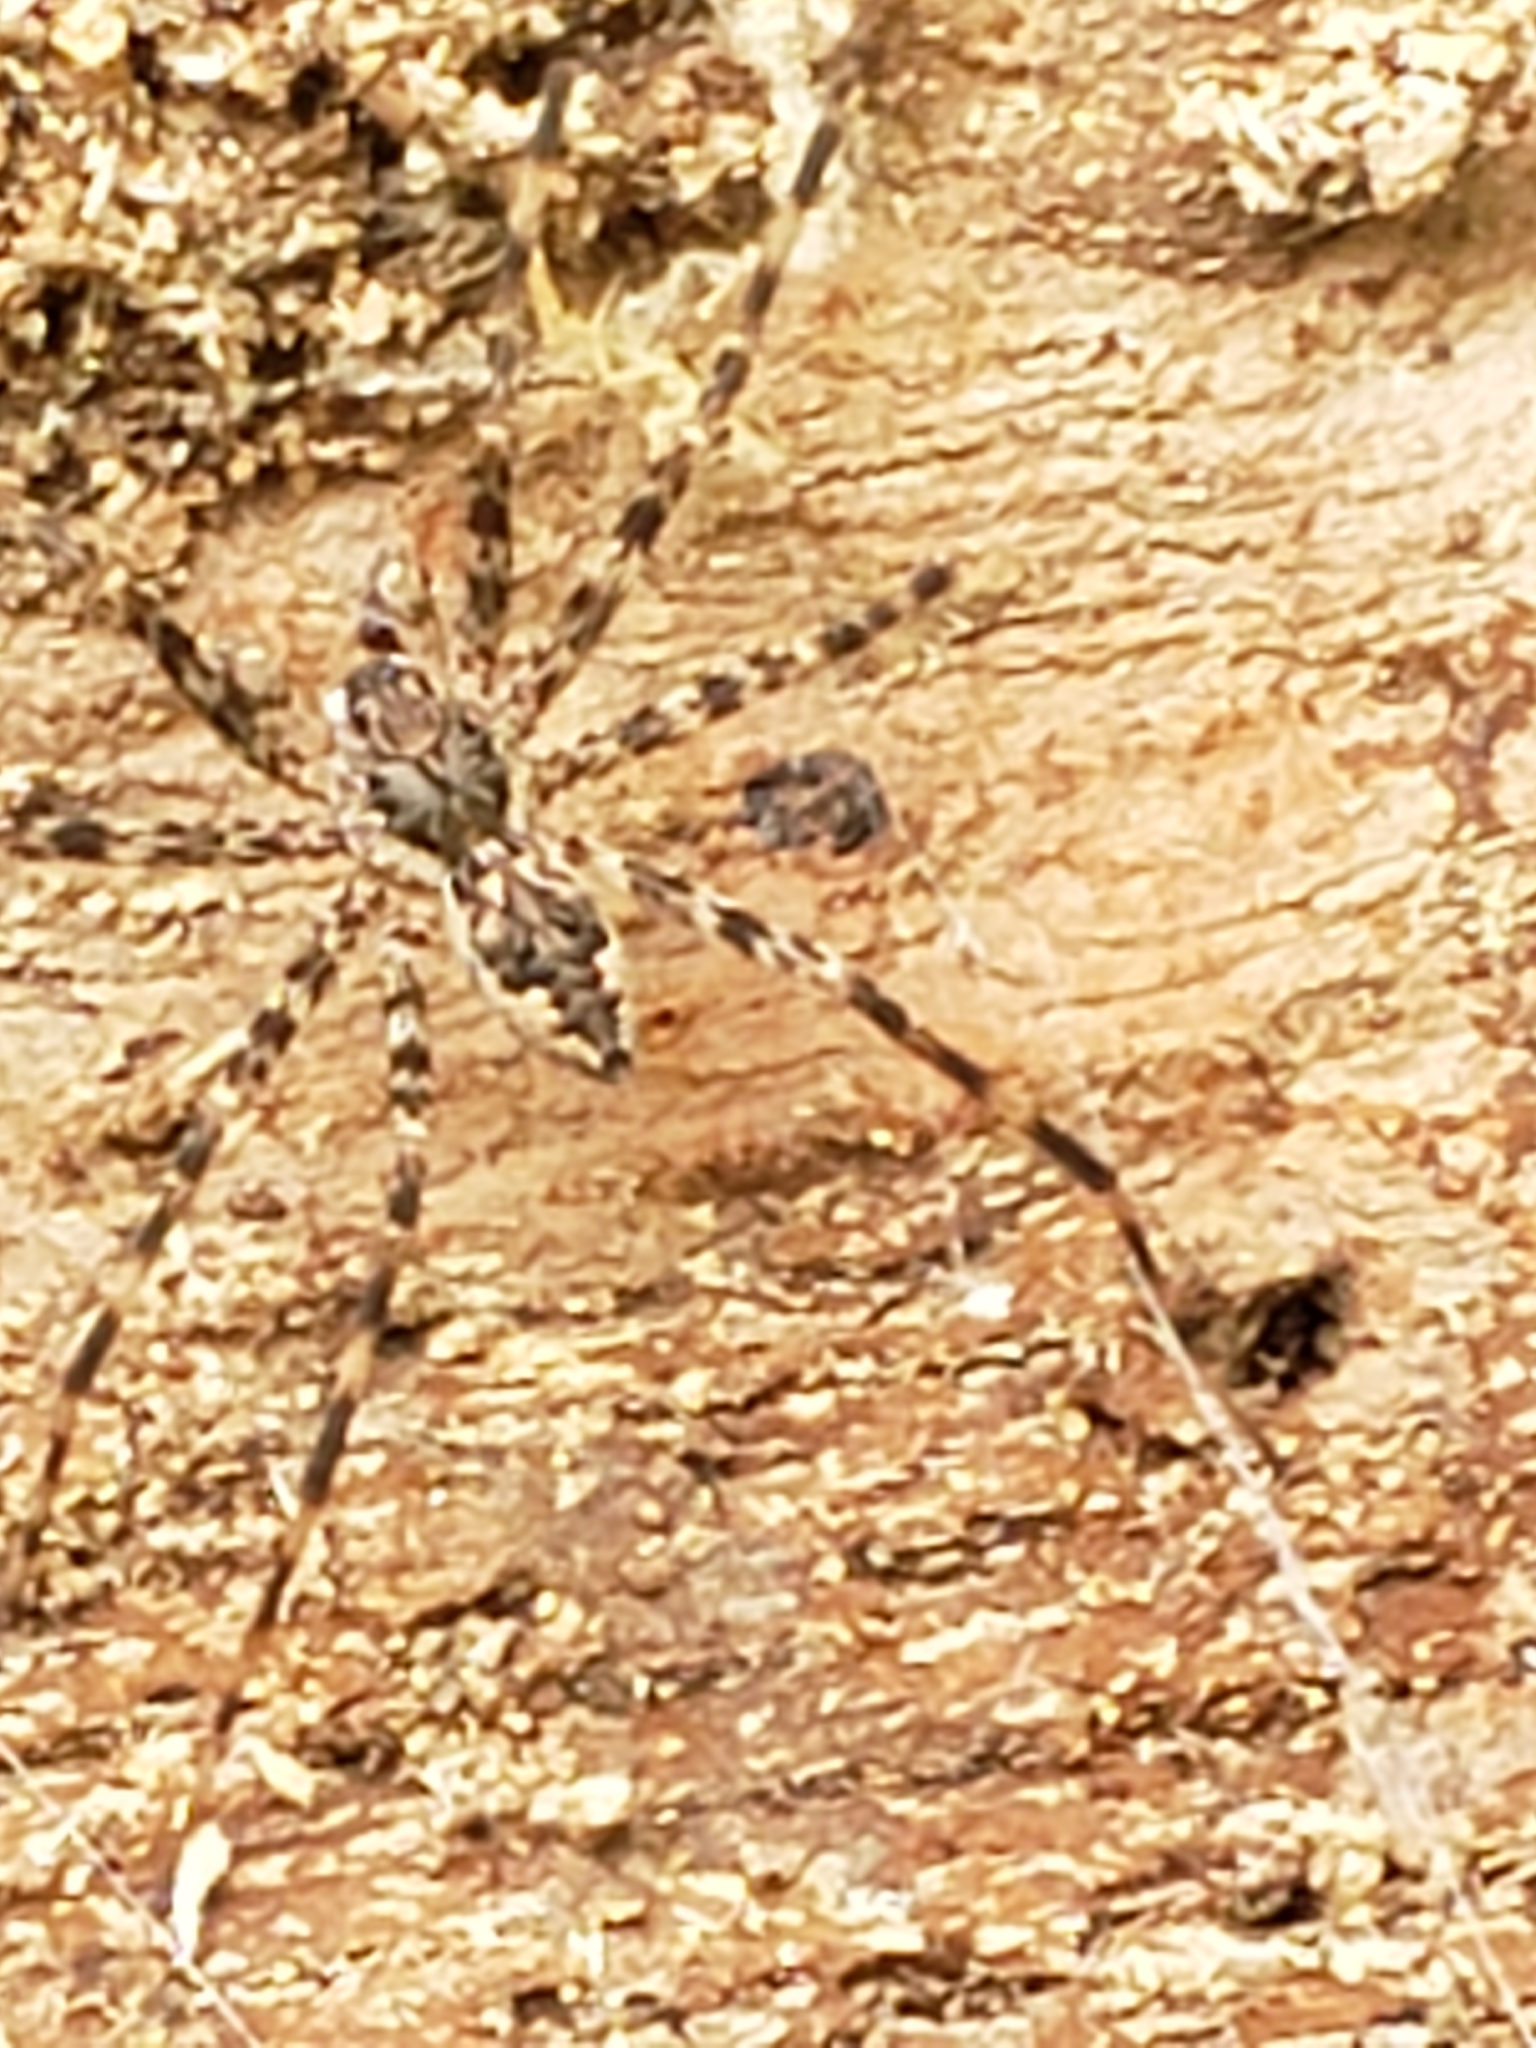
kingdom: Animalia
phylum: Arthropoda
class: Arachnida
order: Araneae
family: Pisauridae
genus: Dolomedes
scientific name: Dolomedes tenebrosus
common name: Dark fishing spider
